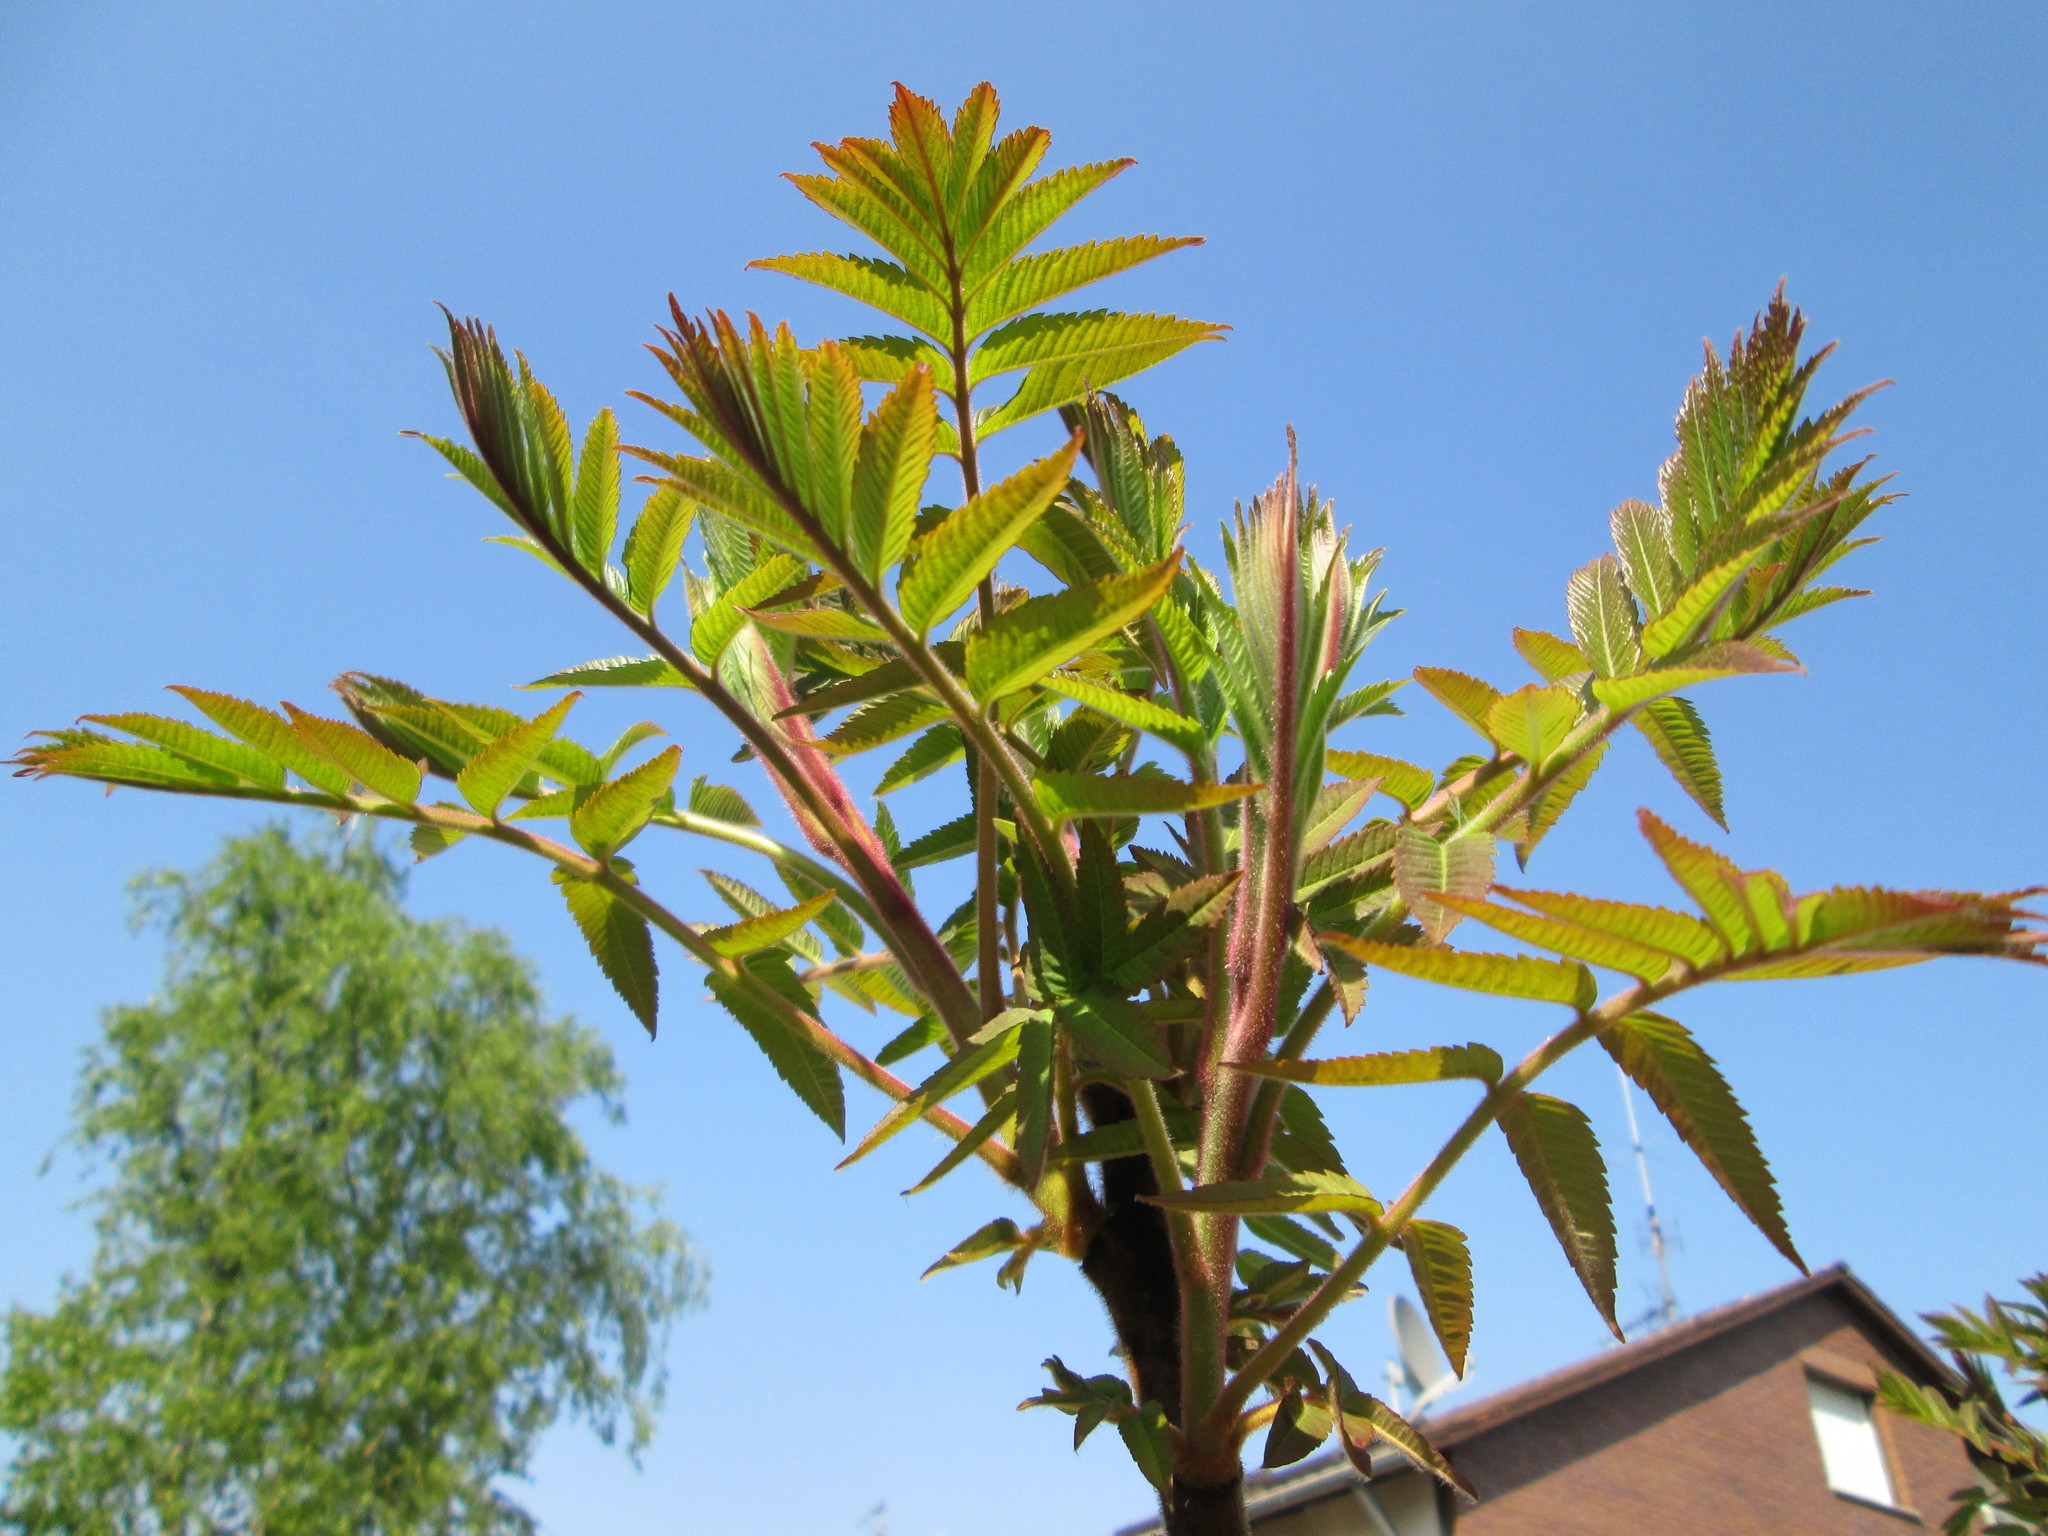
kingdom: Plantae
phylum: Tracheophyta
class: Magnoliopsida
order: Sapindales
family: Anacardiaceae
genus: Rhus
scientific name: Rhus typhina
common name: Staghorn sumac
